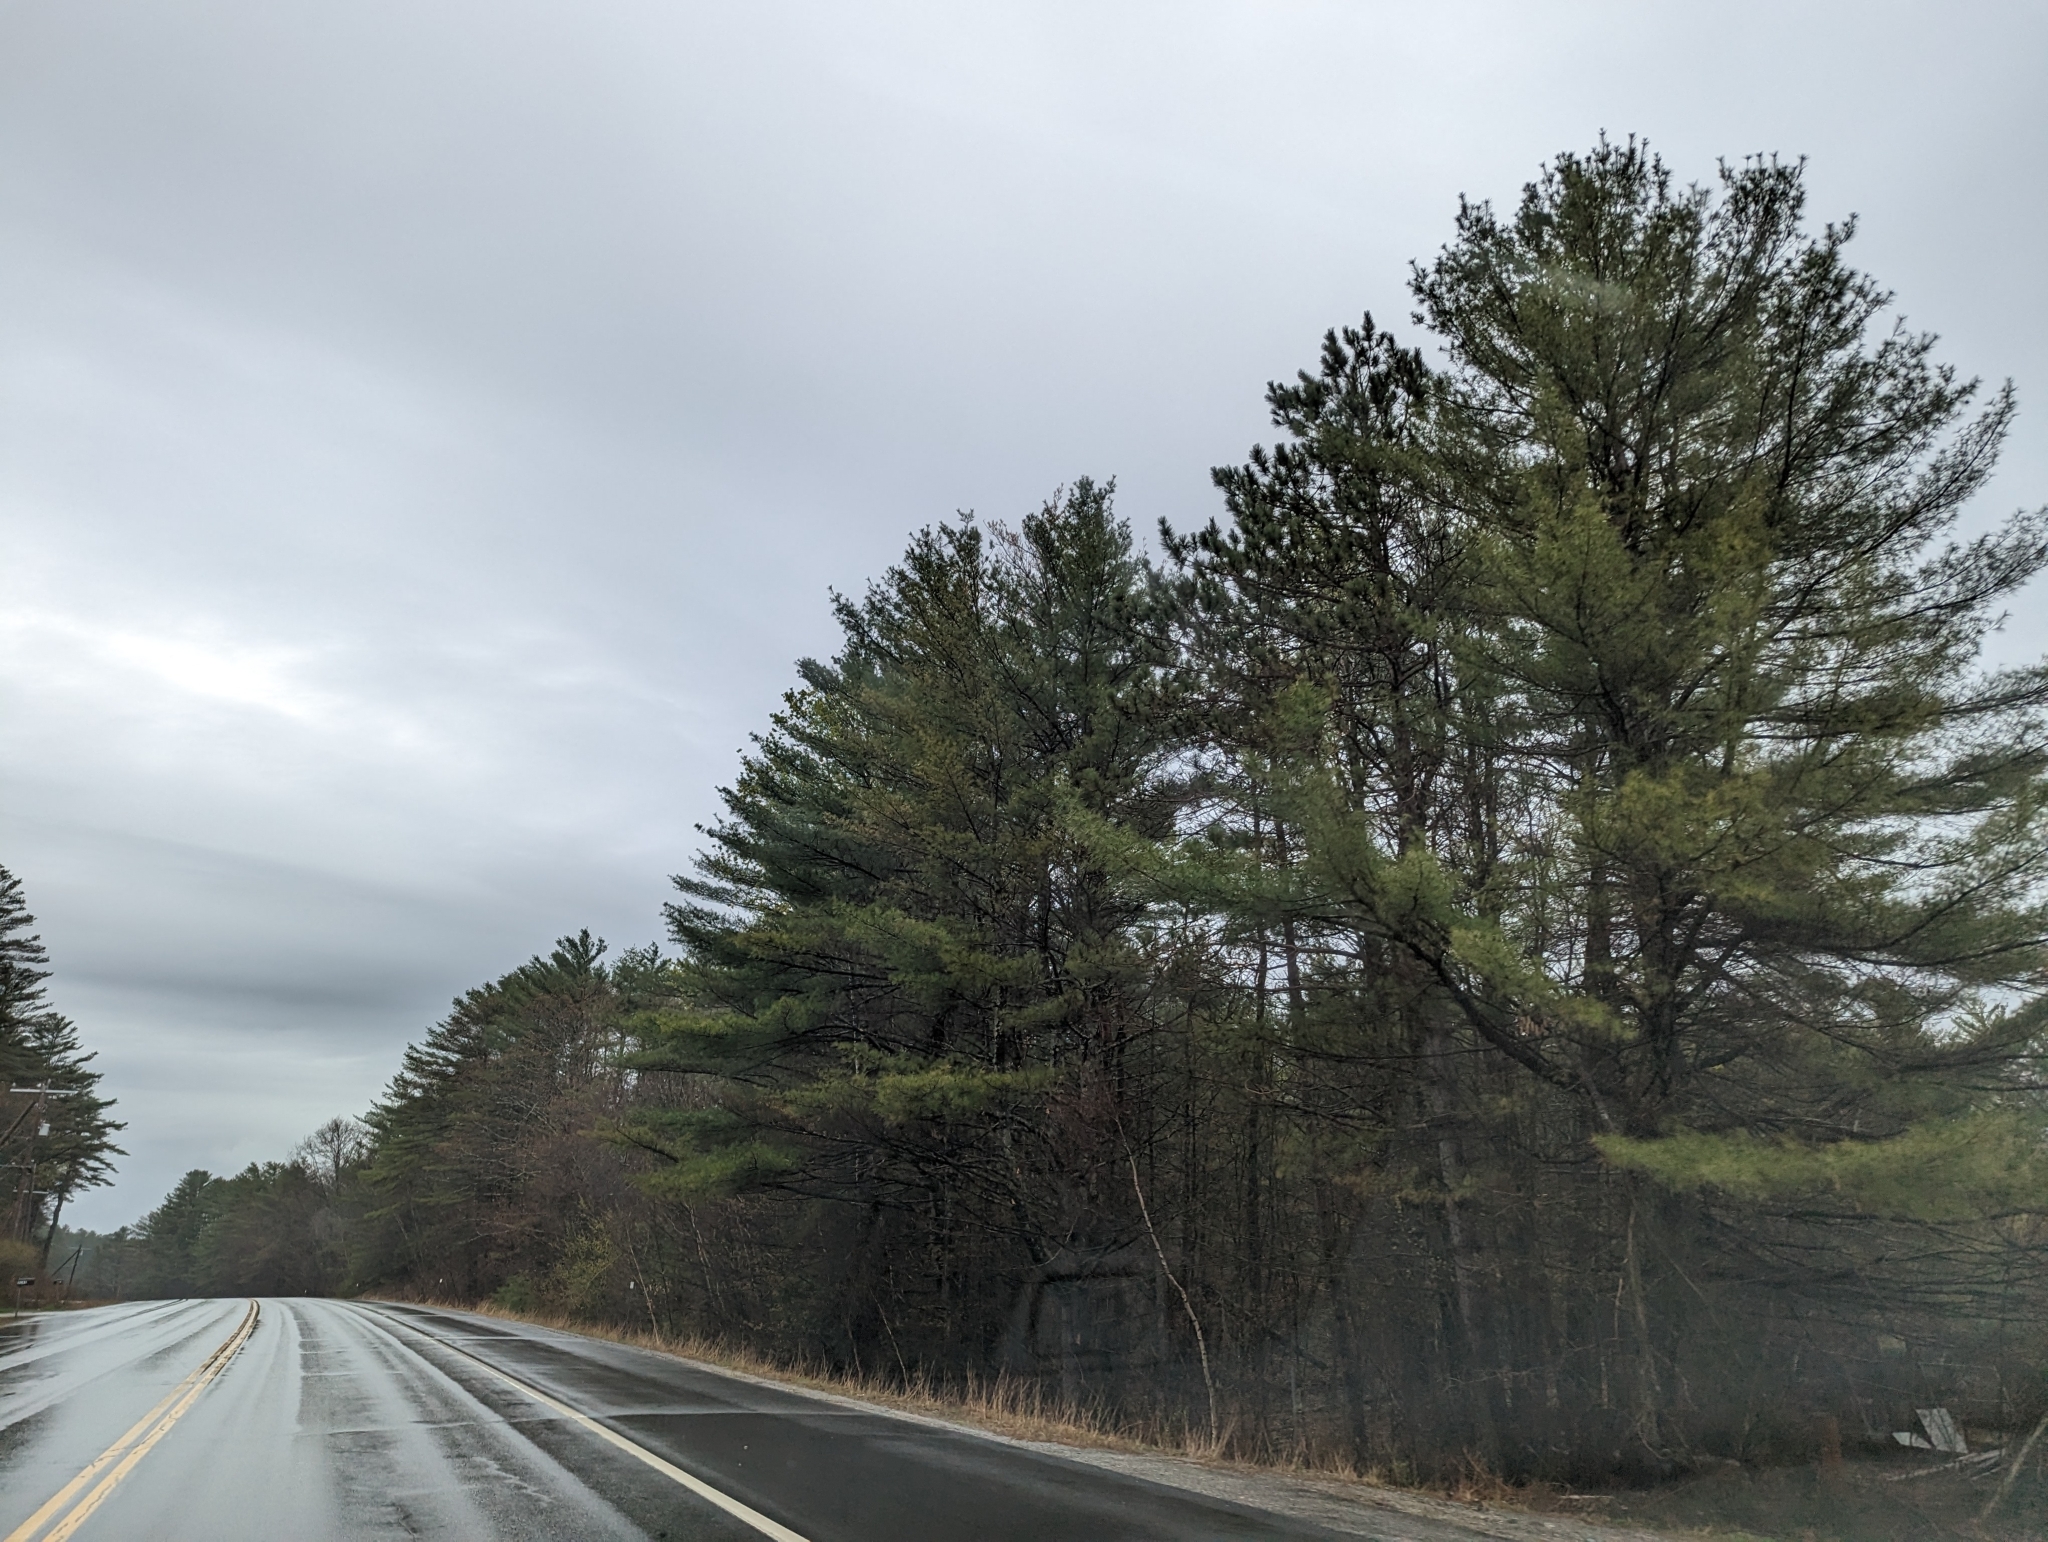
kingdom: Plantae
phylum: Tracheophyta
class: Pinopsida
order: Pinales
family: Pinaceae
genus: Pinus
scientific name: Pinus strobus
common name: Weymouth pine
